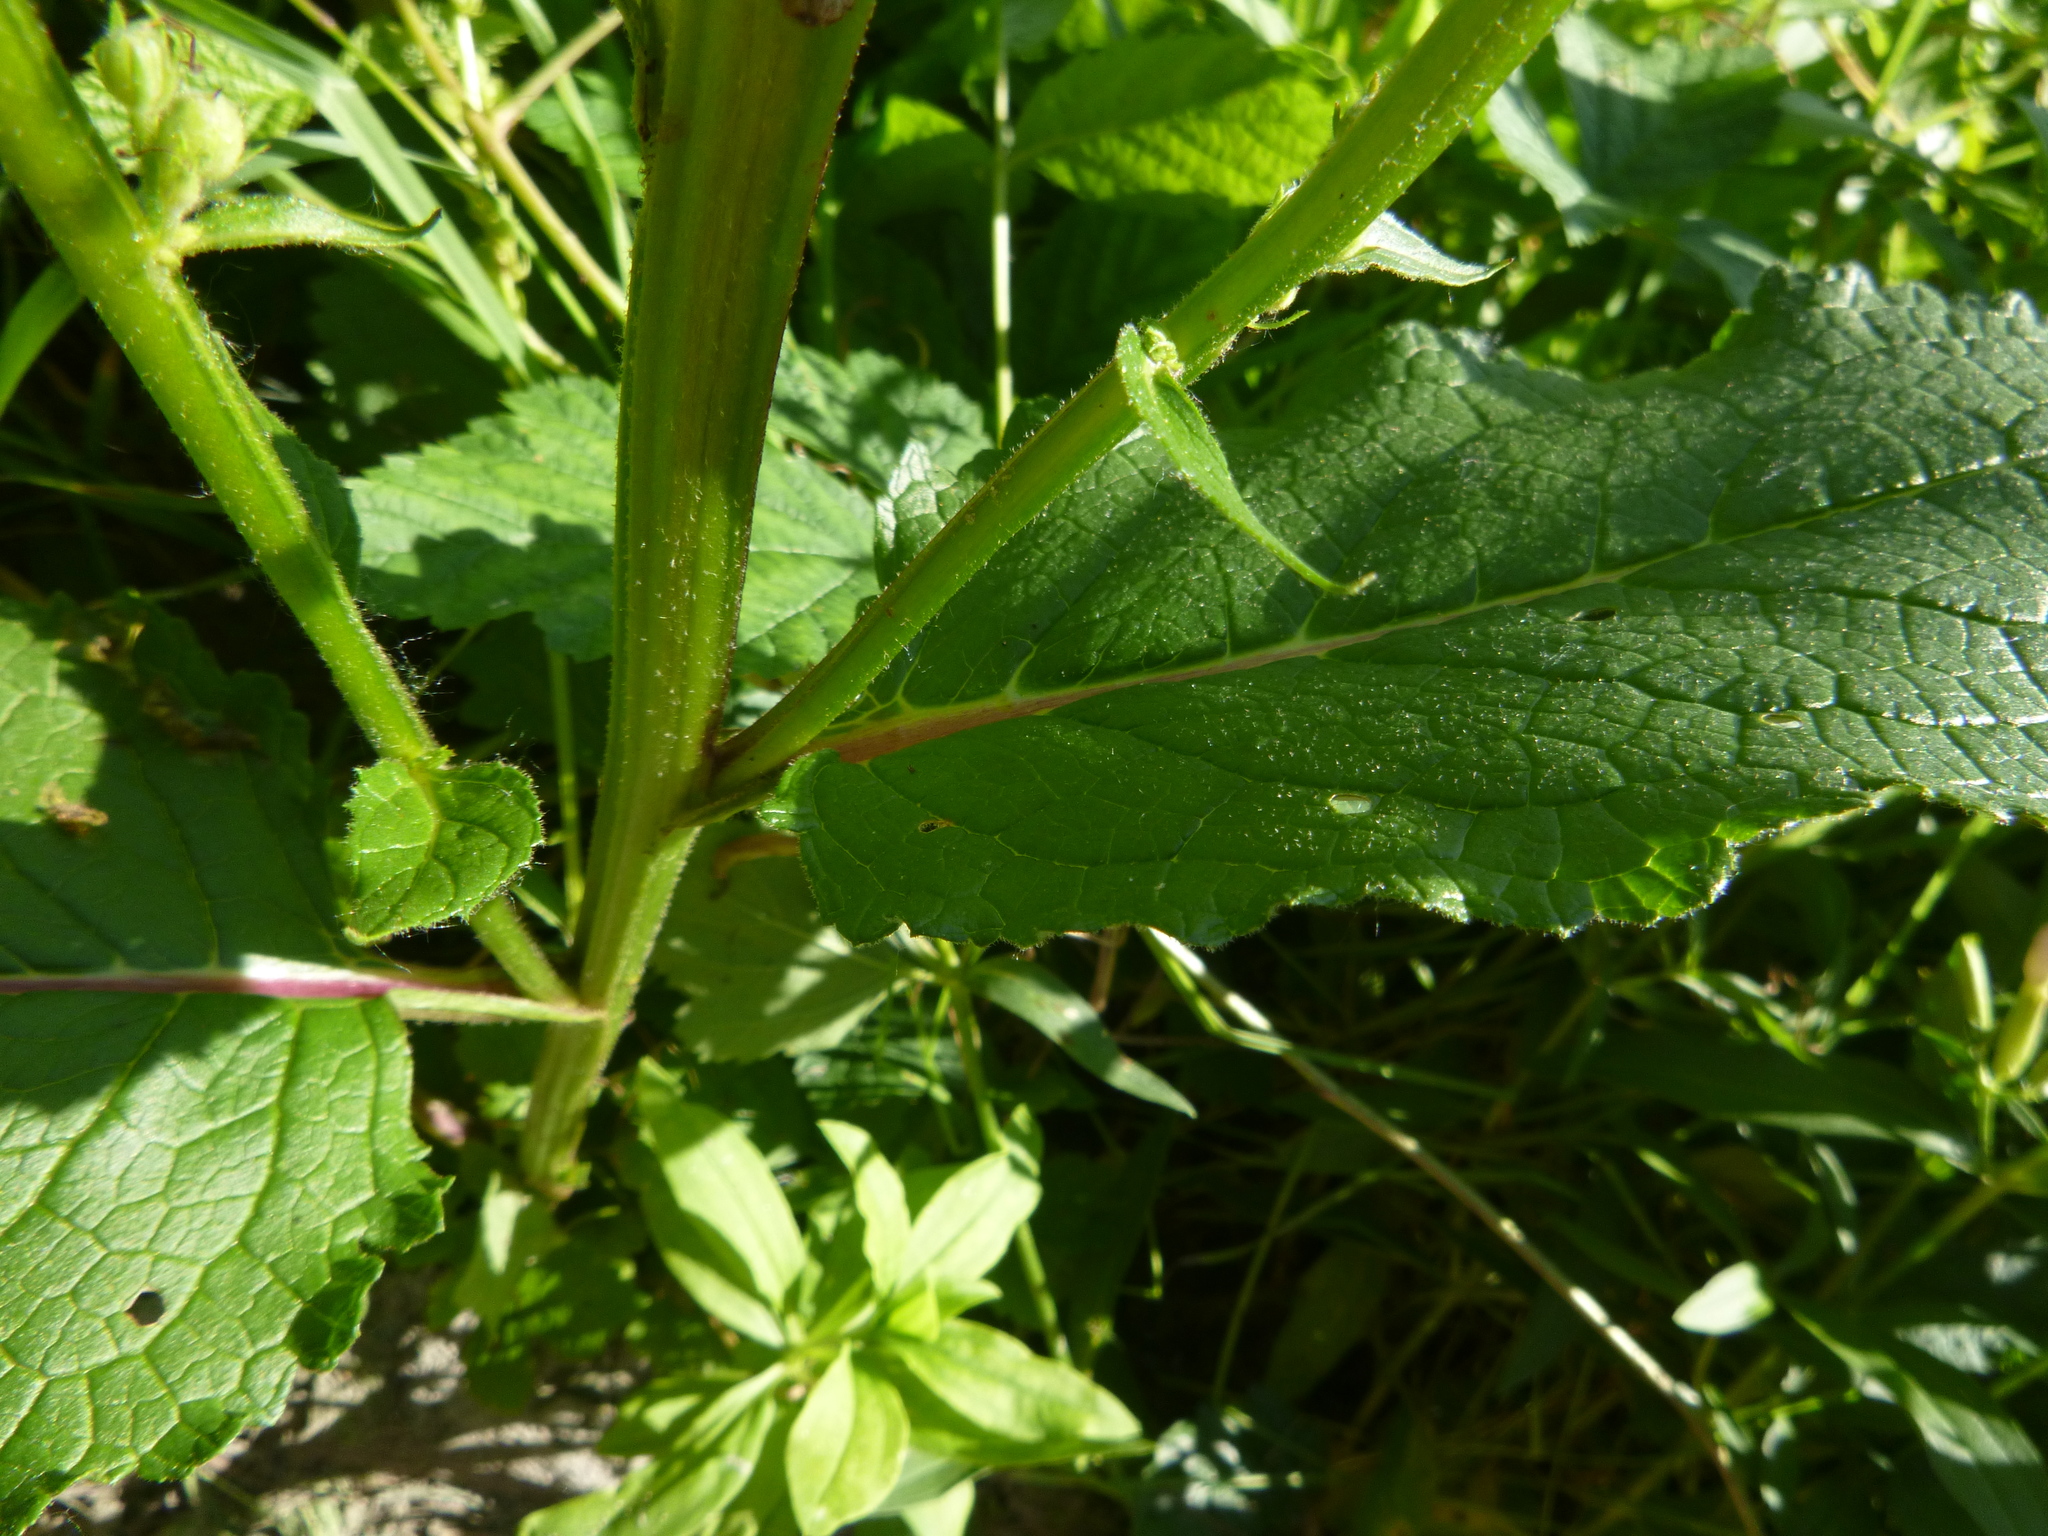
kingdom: Plantae
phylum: Tracheophyta
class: Magnoliopsida
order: Lamiales
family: Scrophulariaceae
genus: Verbascum
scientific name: Verbascum nigrum
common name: Dark mullein
